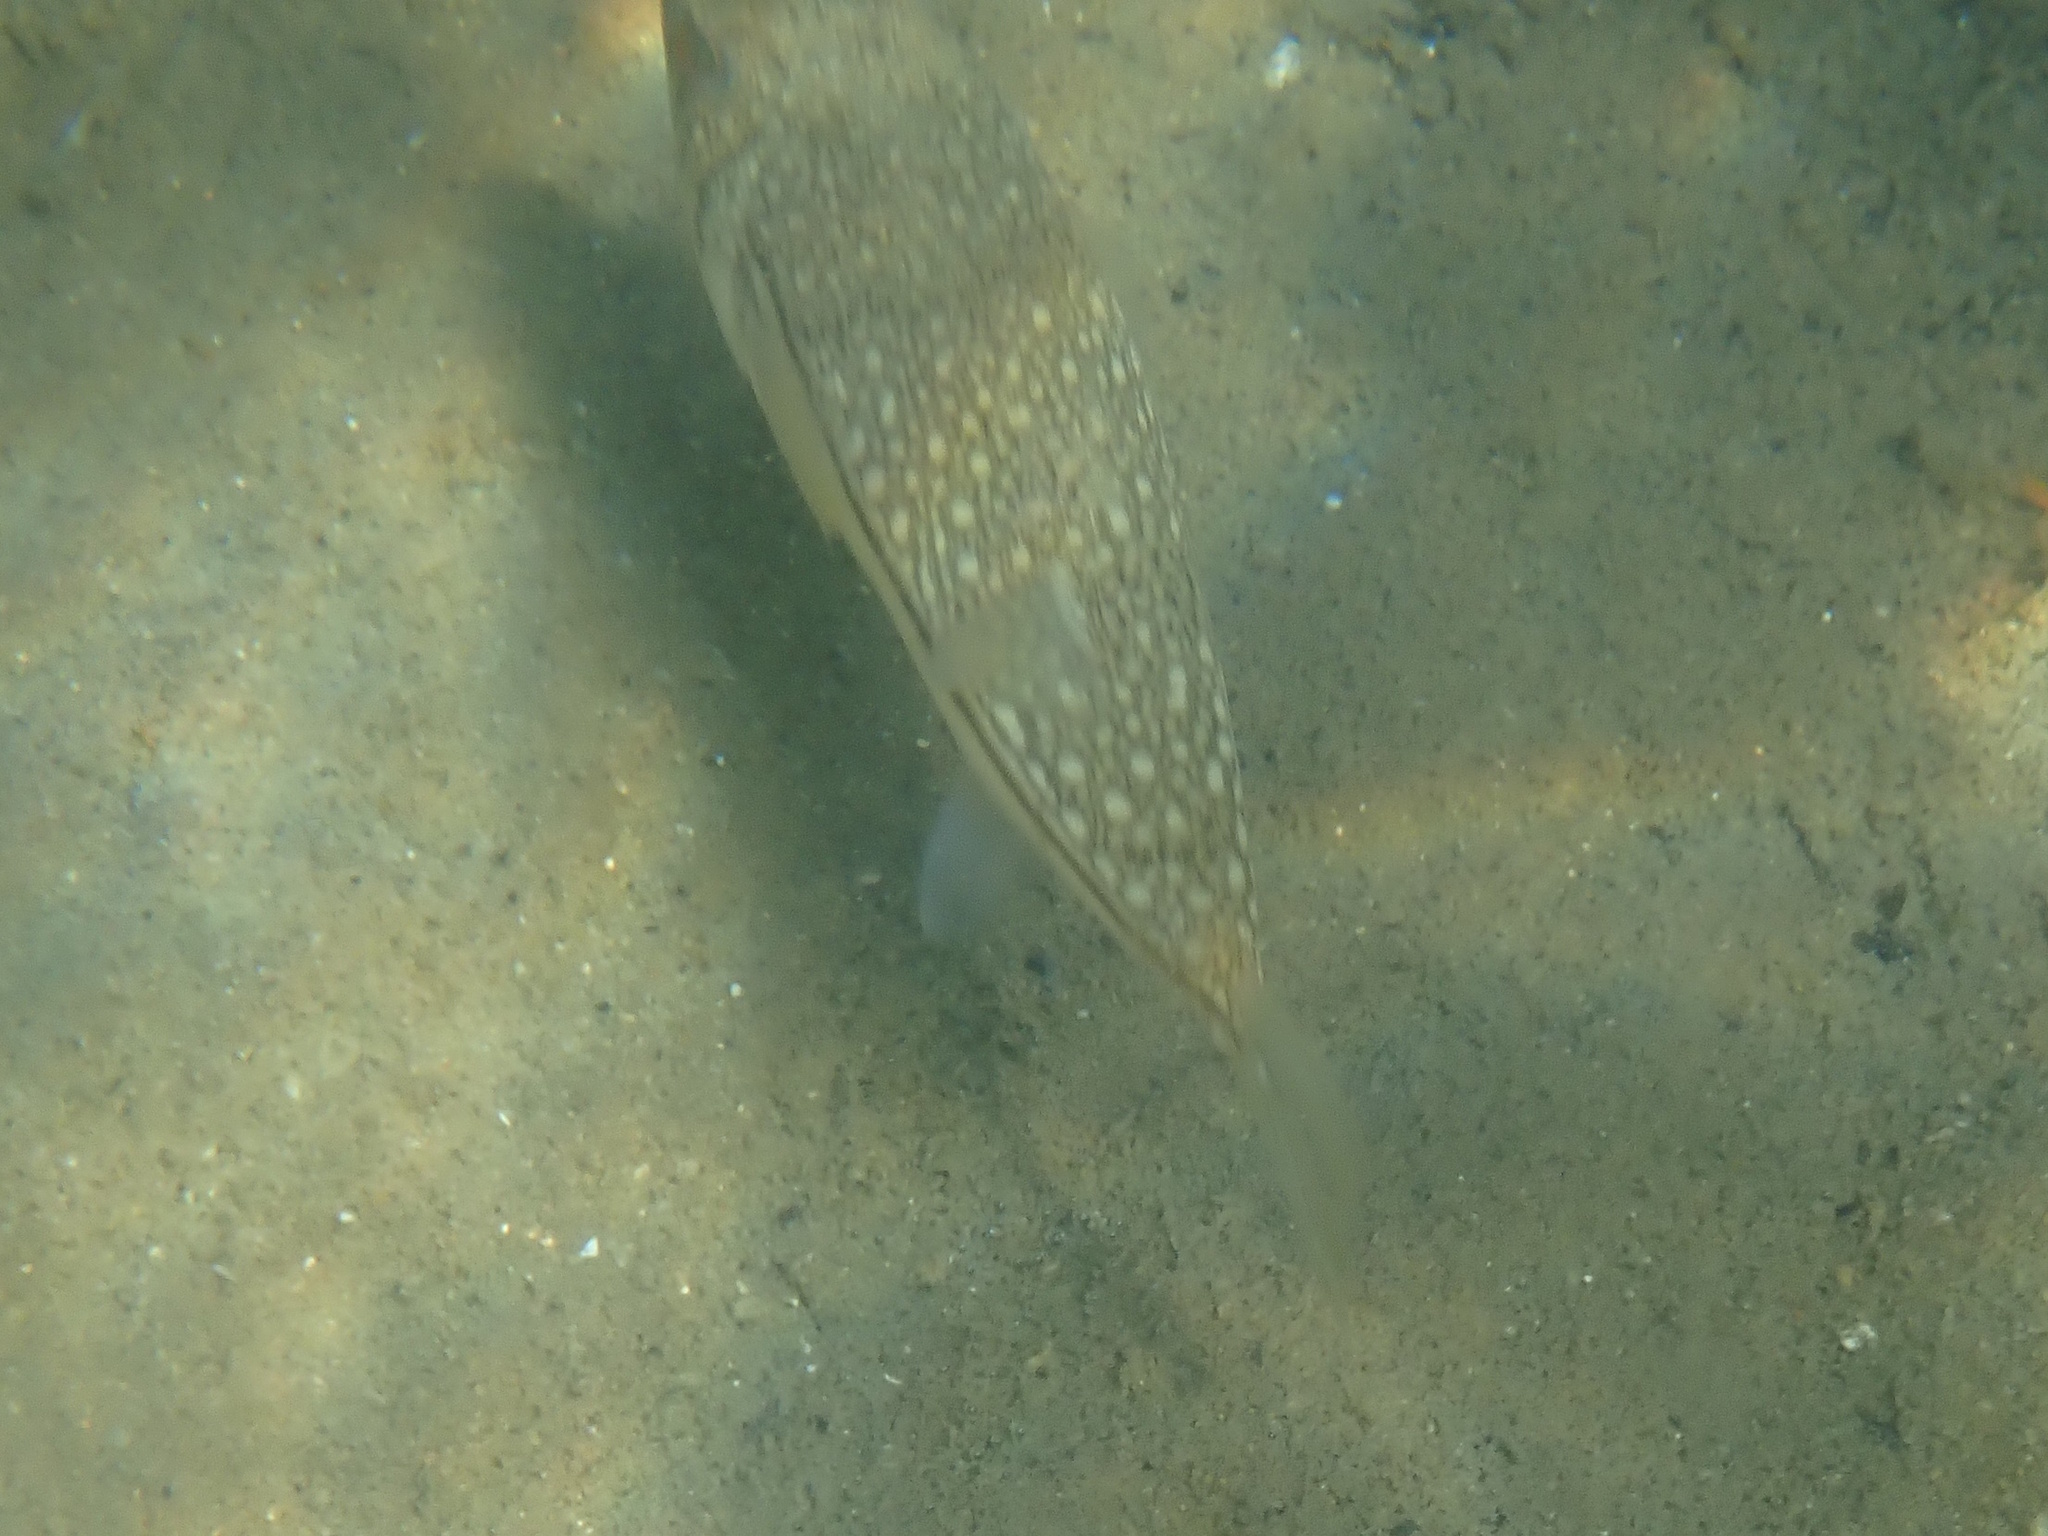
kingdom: Animalia
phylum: Chordata
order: Tetraodontiformes
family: Tetraodontidae
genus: Torquigener
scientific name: Torquigener pleurogramma
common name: Banded toadfish
